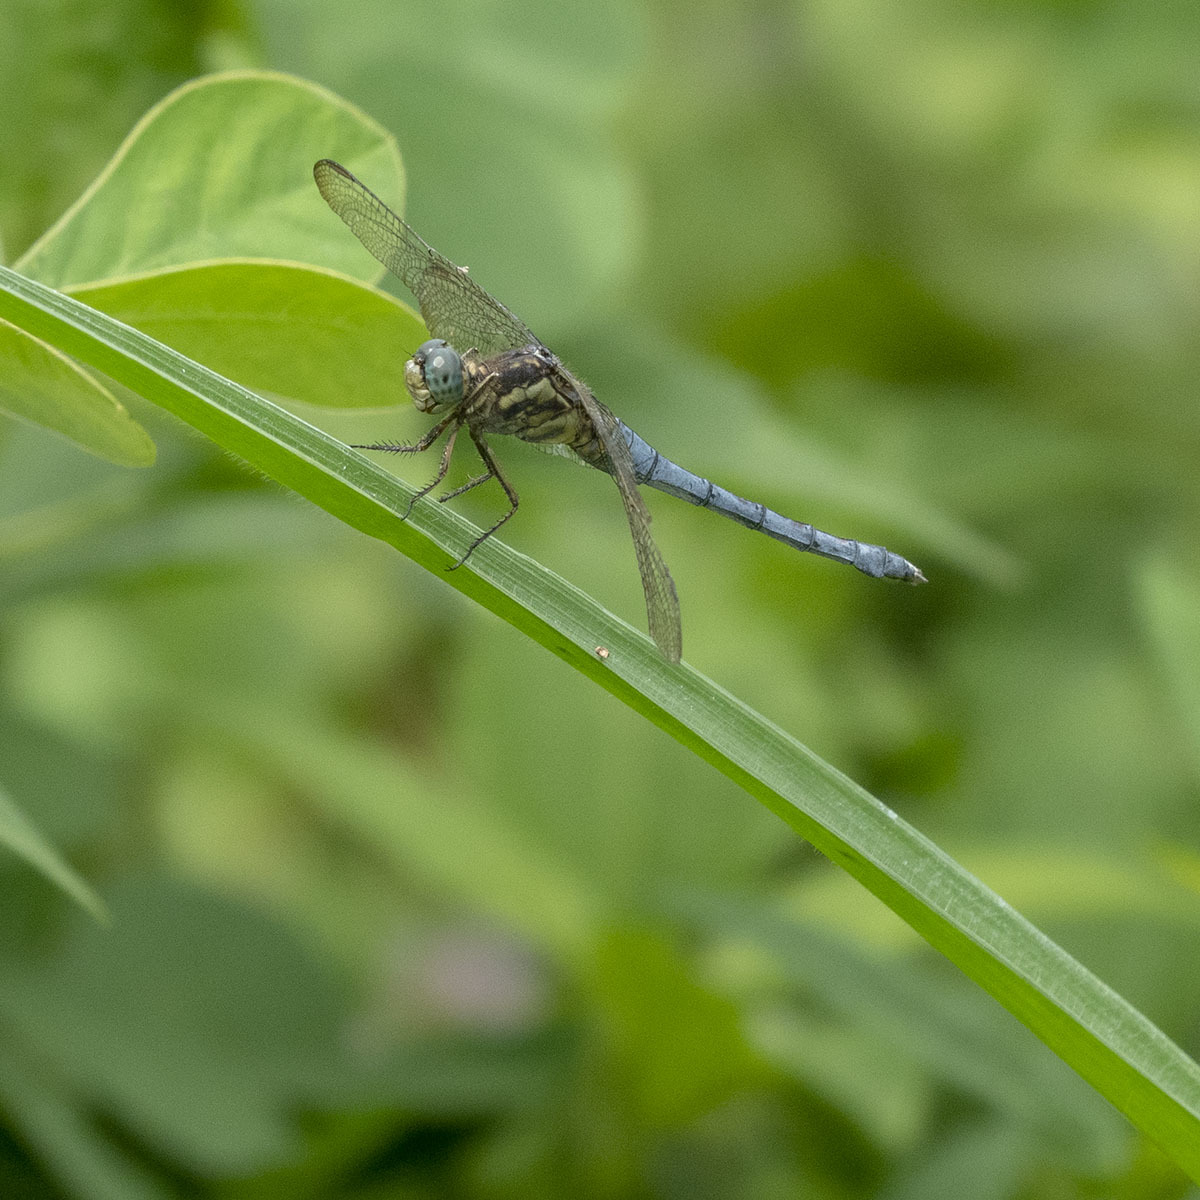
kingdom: Animalia
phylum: Arthropoda
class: Insecta
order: Odonata
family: Libellulidae
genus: Orthetrum
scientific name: Orthetrum luzonicum
